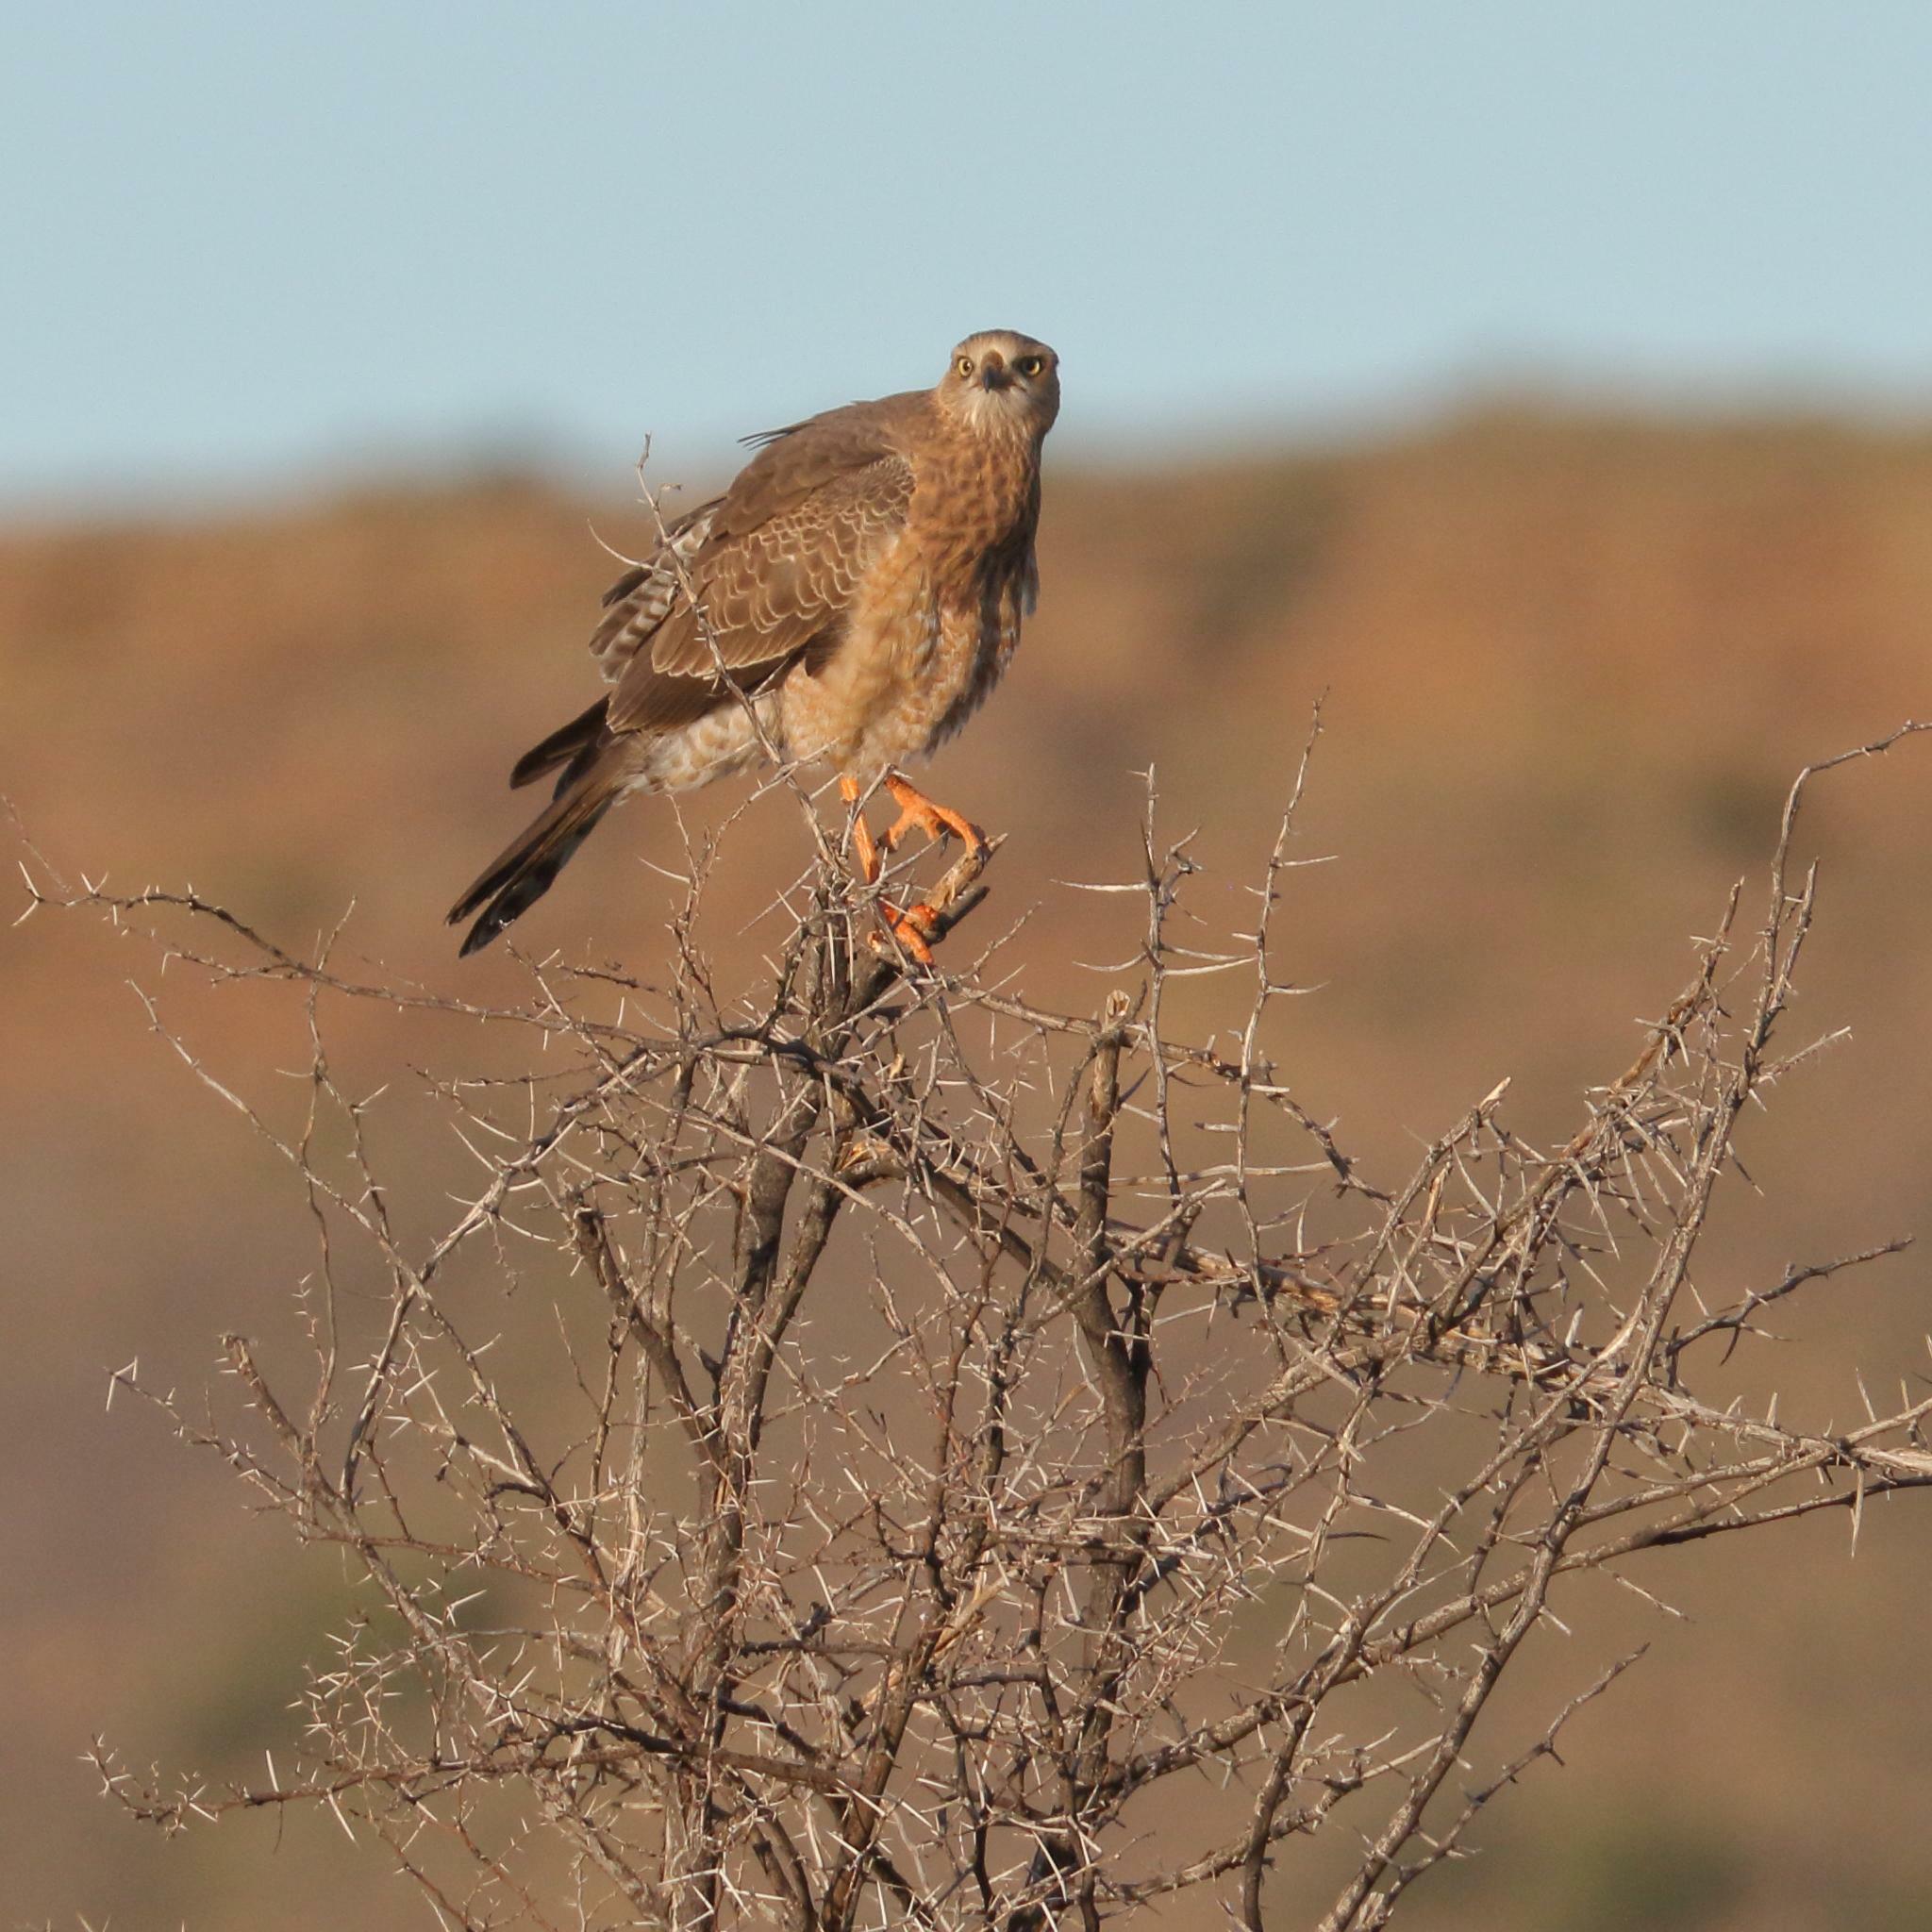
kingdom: Animalia
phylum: Chordata
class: Aves
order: Accipitriformes
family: Accipitridae
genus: Melierax
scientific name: Melierax canorus
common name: Pale chanting-goshawk
